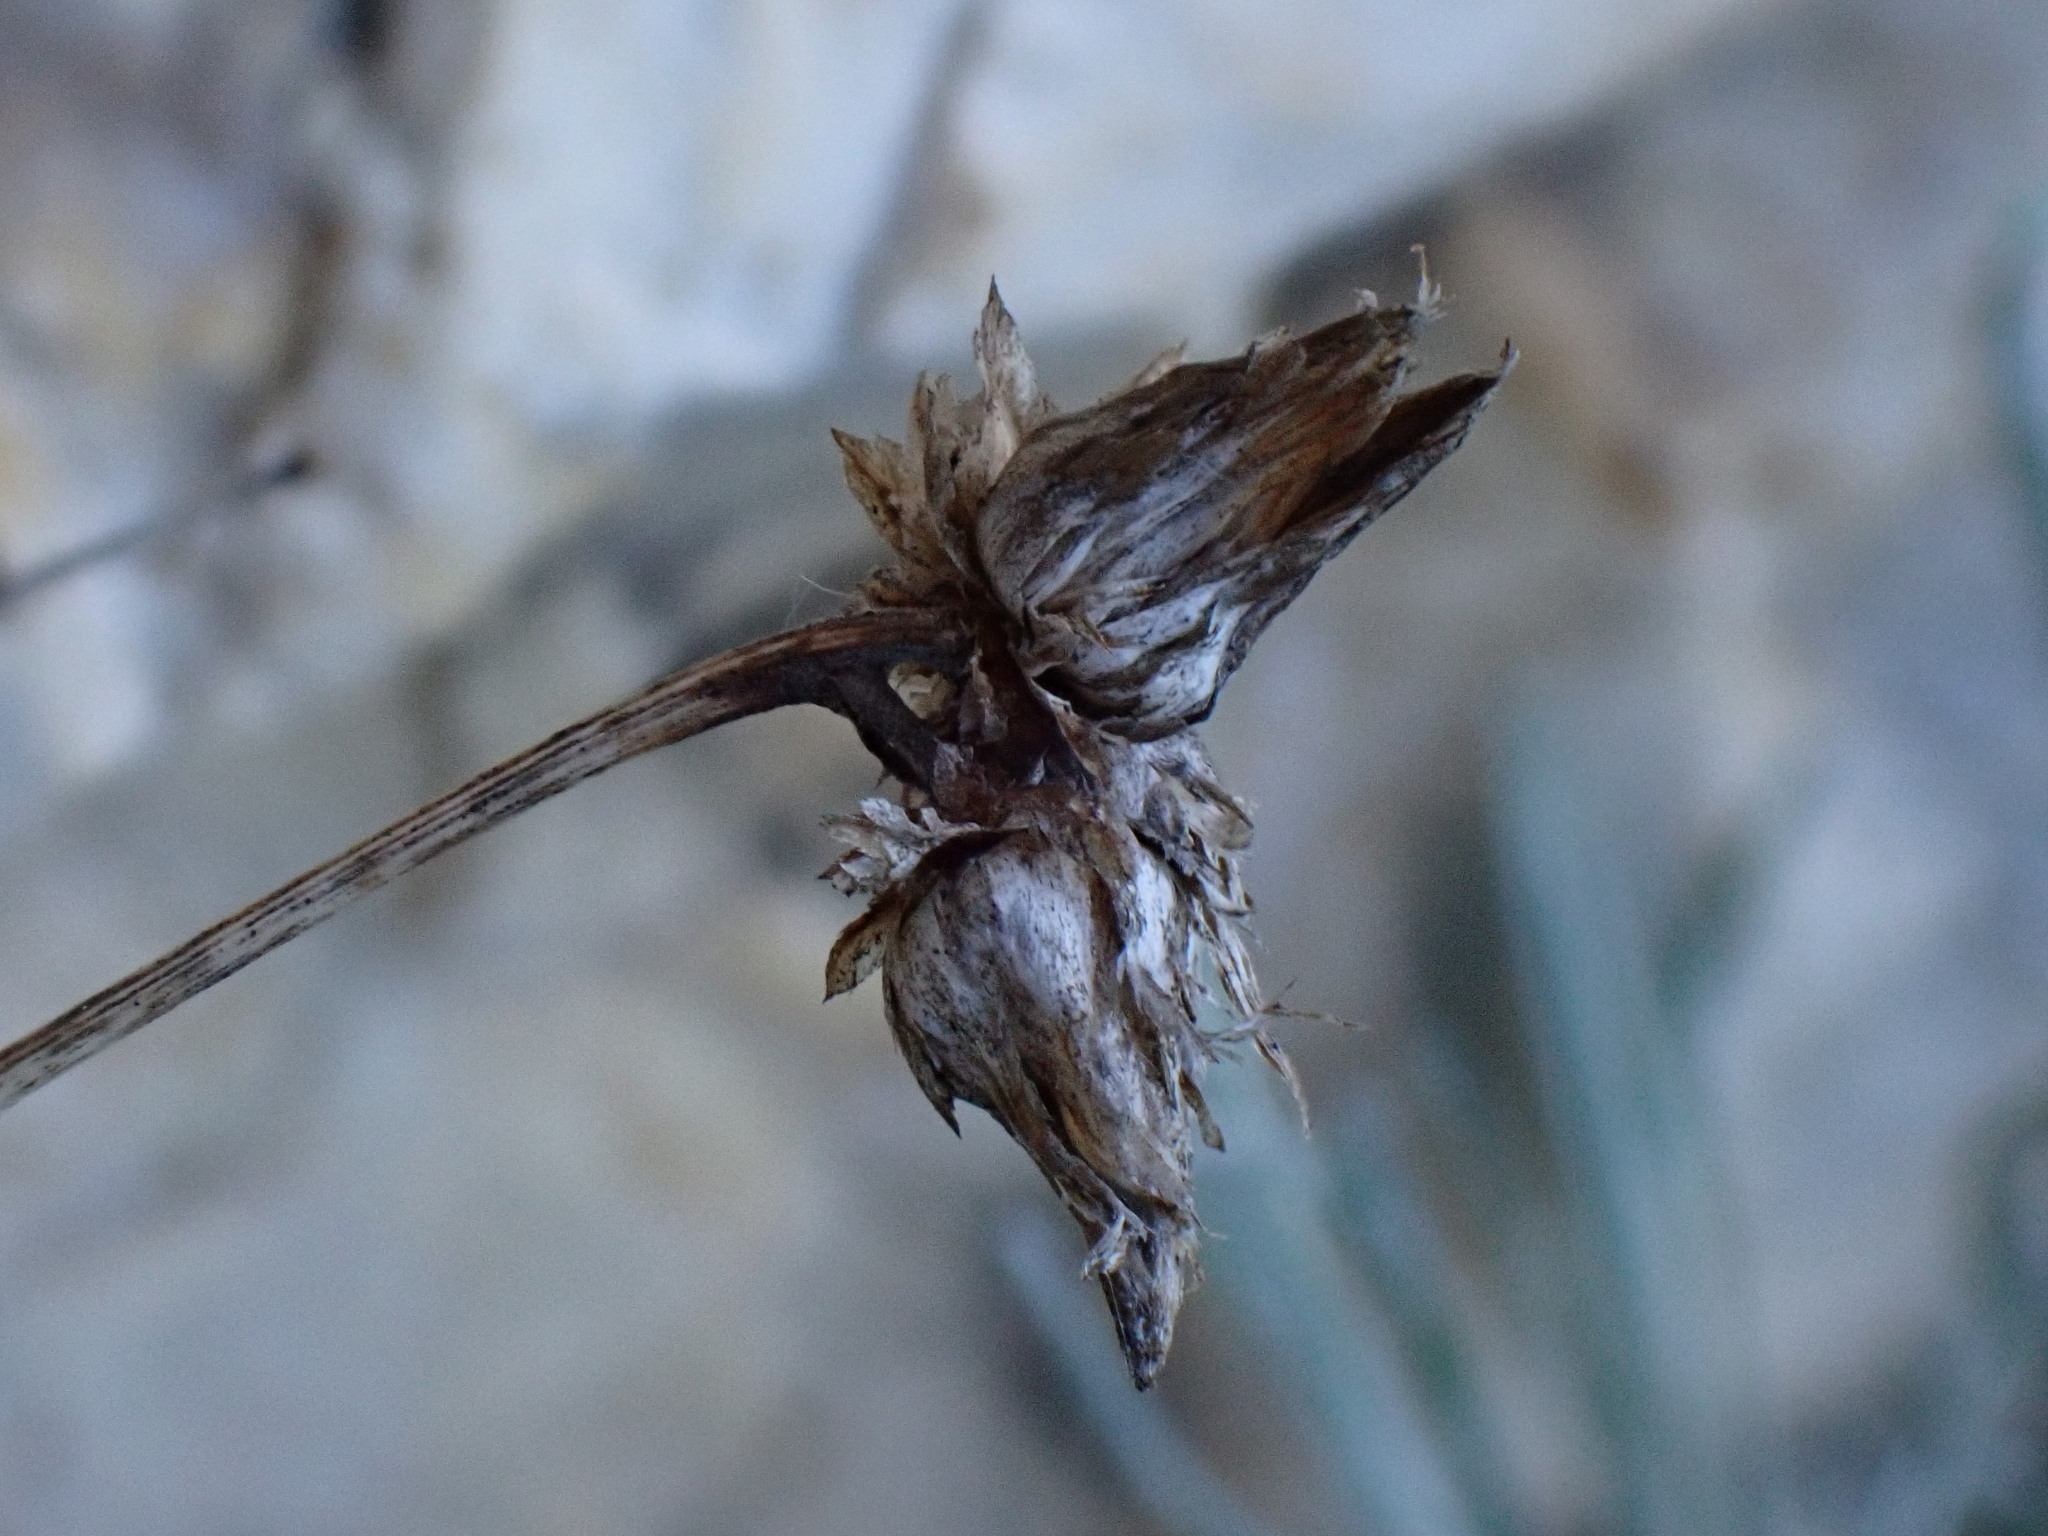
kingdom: Plantae
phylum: Tracheophyta
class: Magnoliopsida
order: Asterales
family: Asteraceae
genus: Phagnalon
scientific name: Phagnalon sordidum
